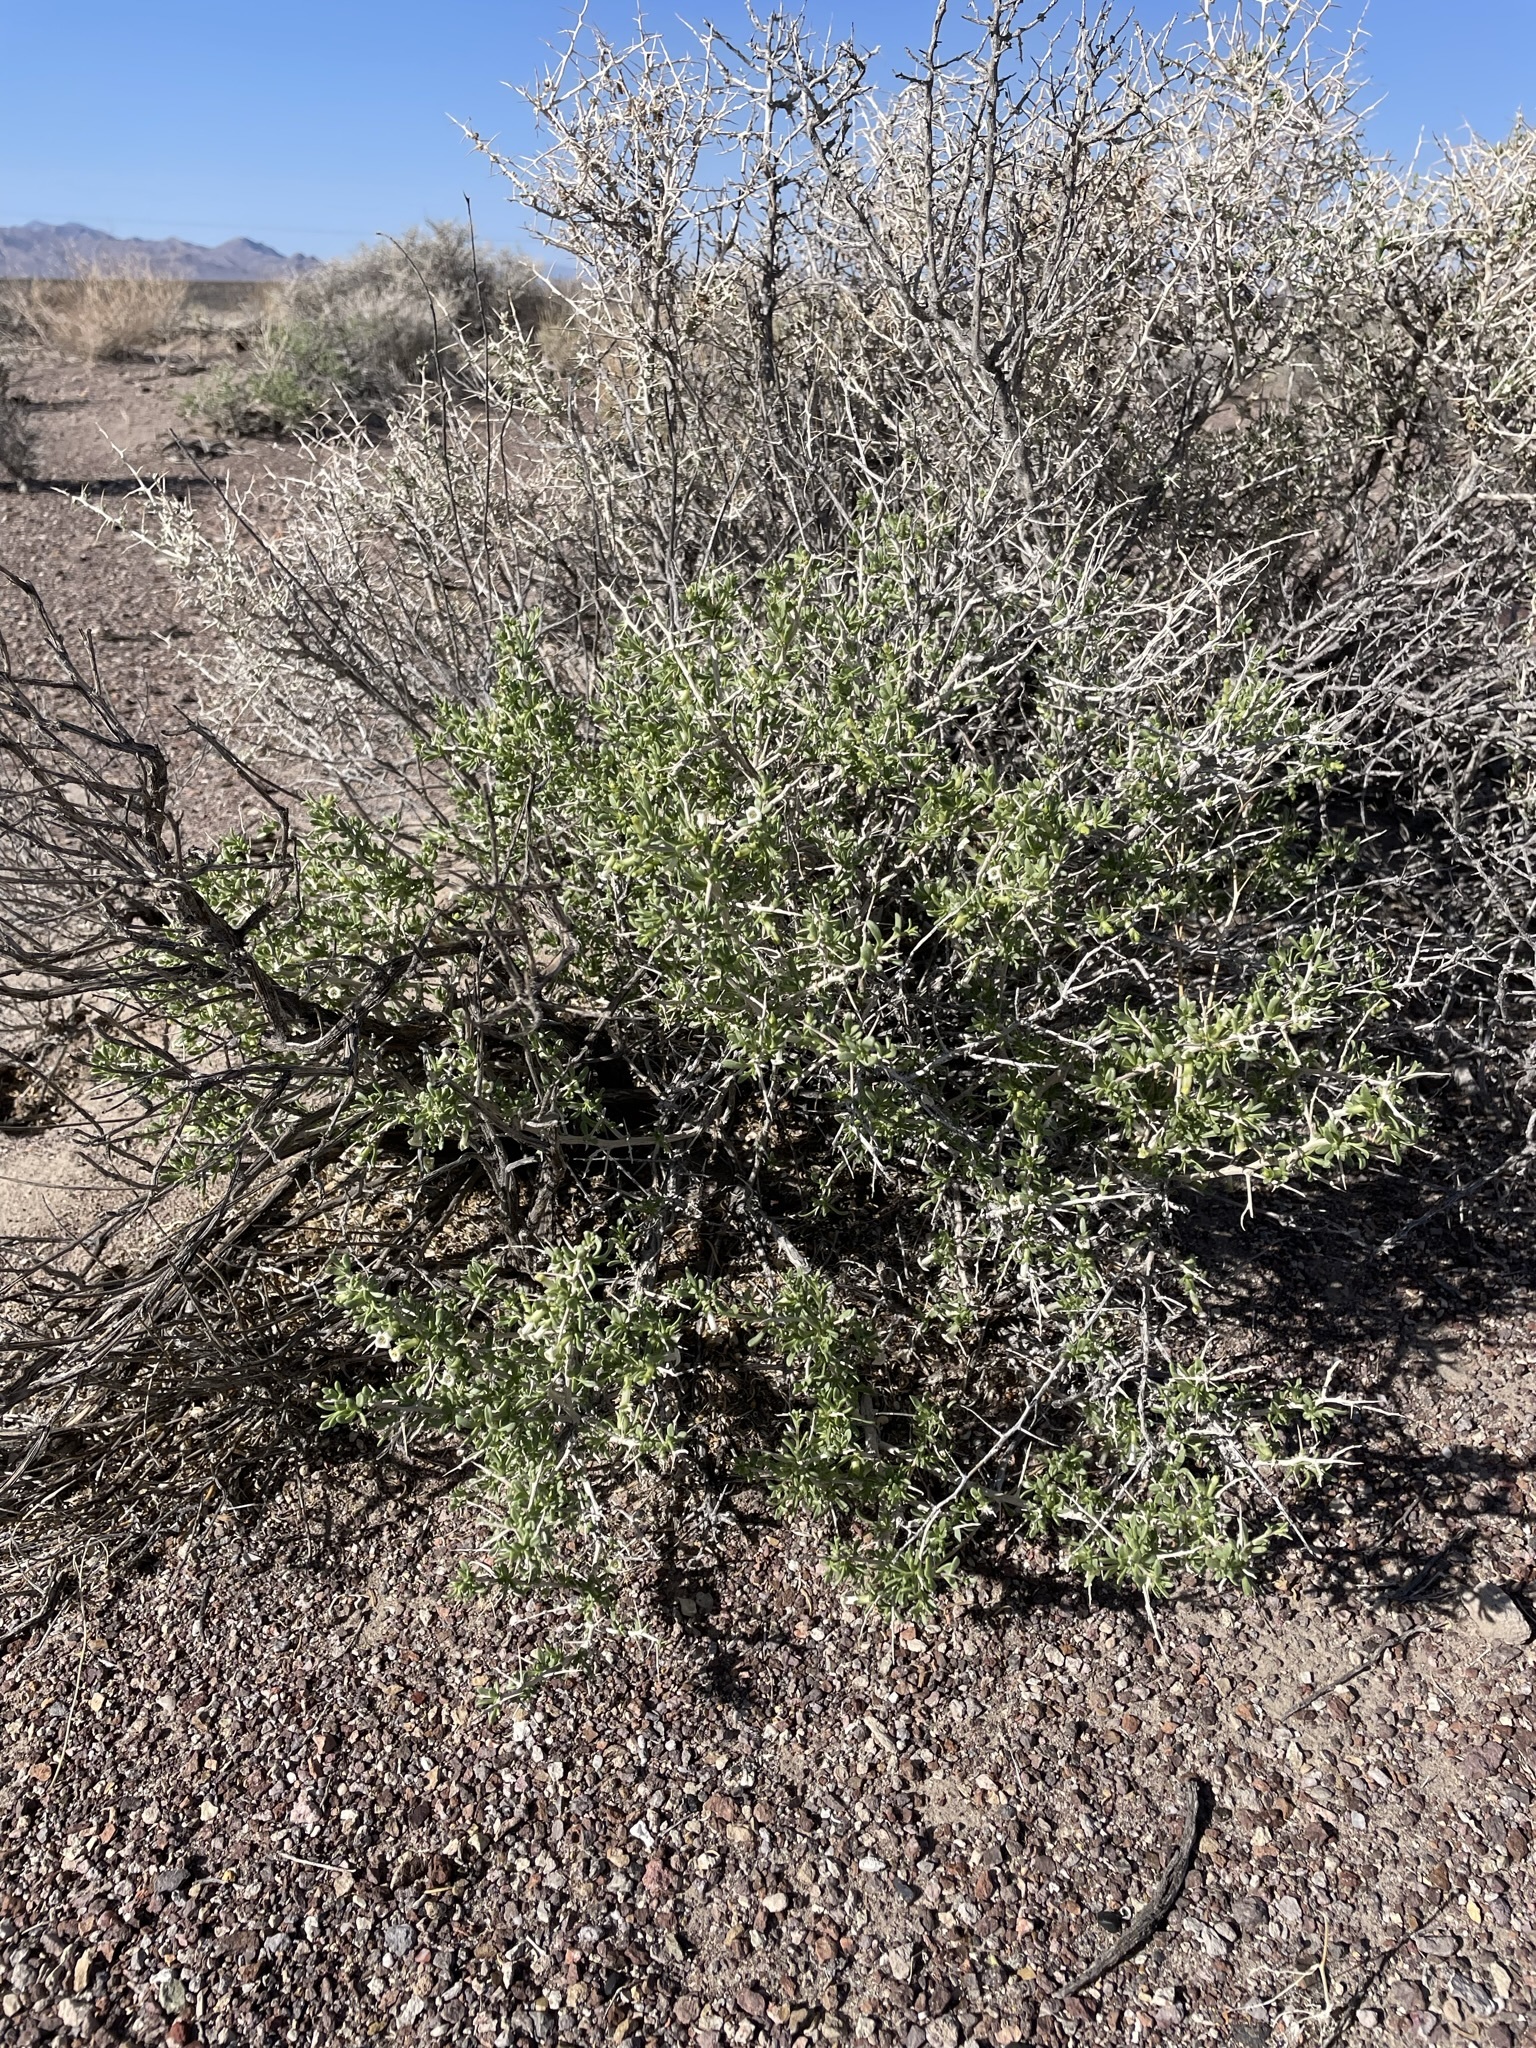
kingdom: Plantae
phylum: Tracheophyta
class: Magnoliopsida
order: Solanales
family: Solanaceae
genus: Lycium
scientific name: Lycium shockleyi
